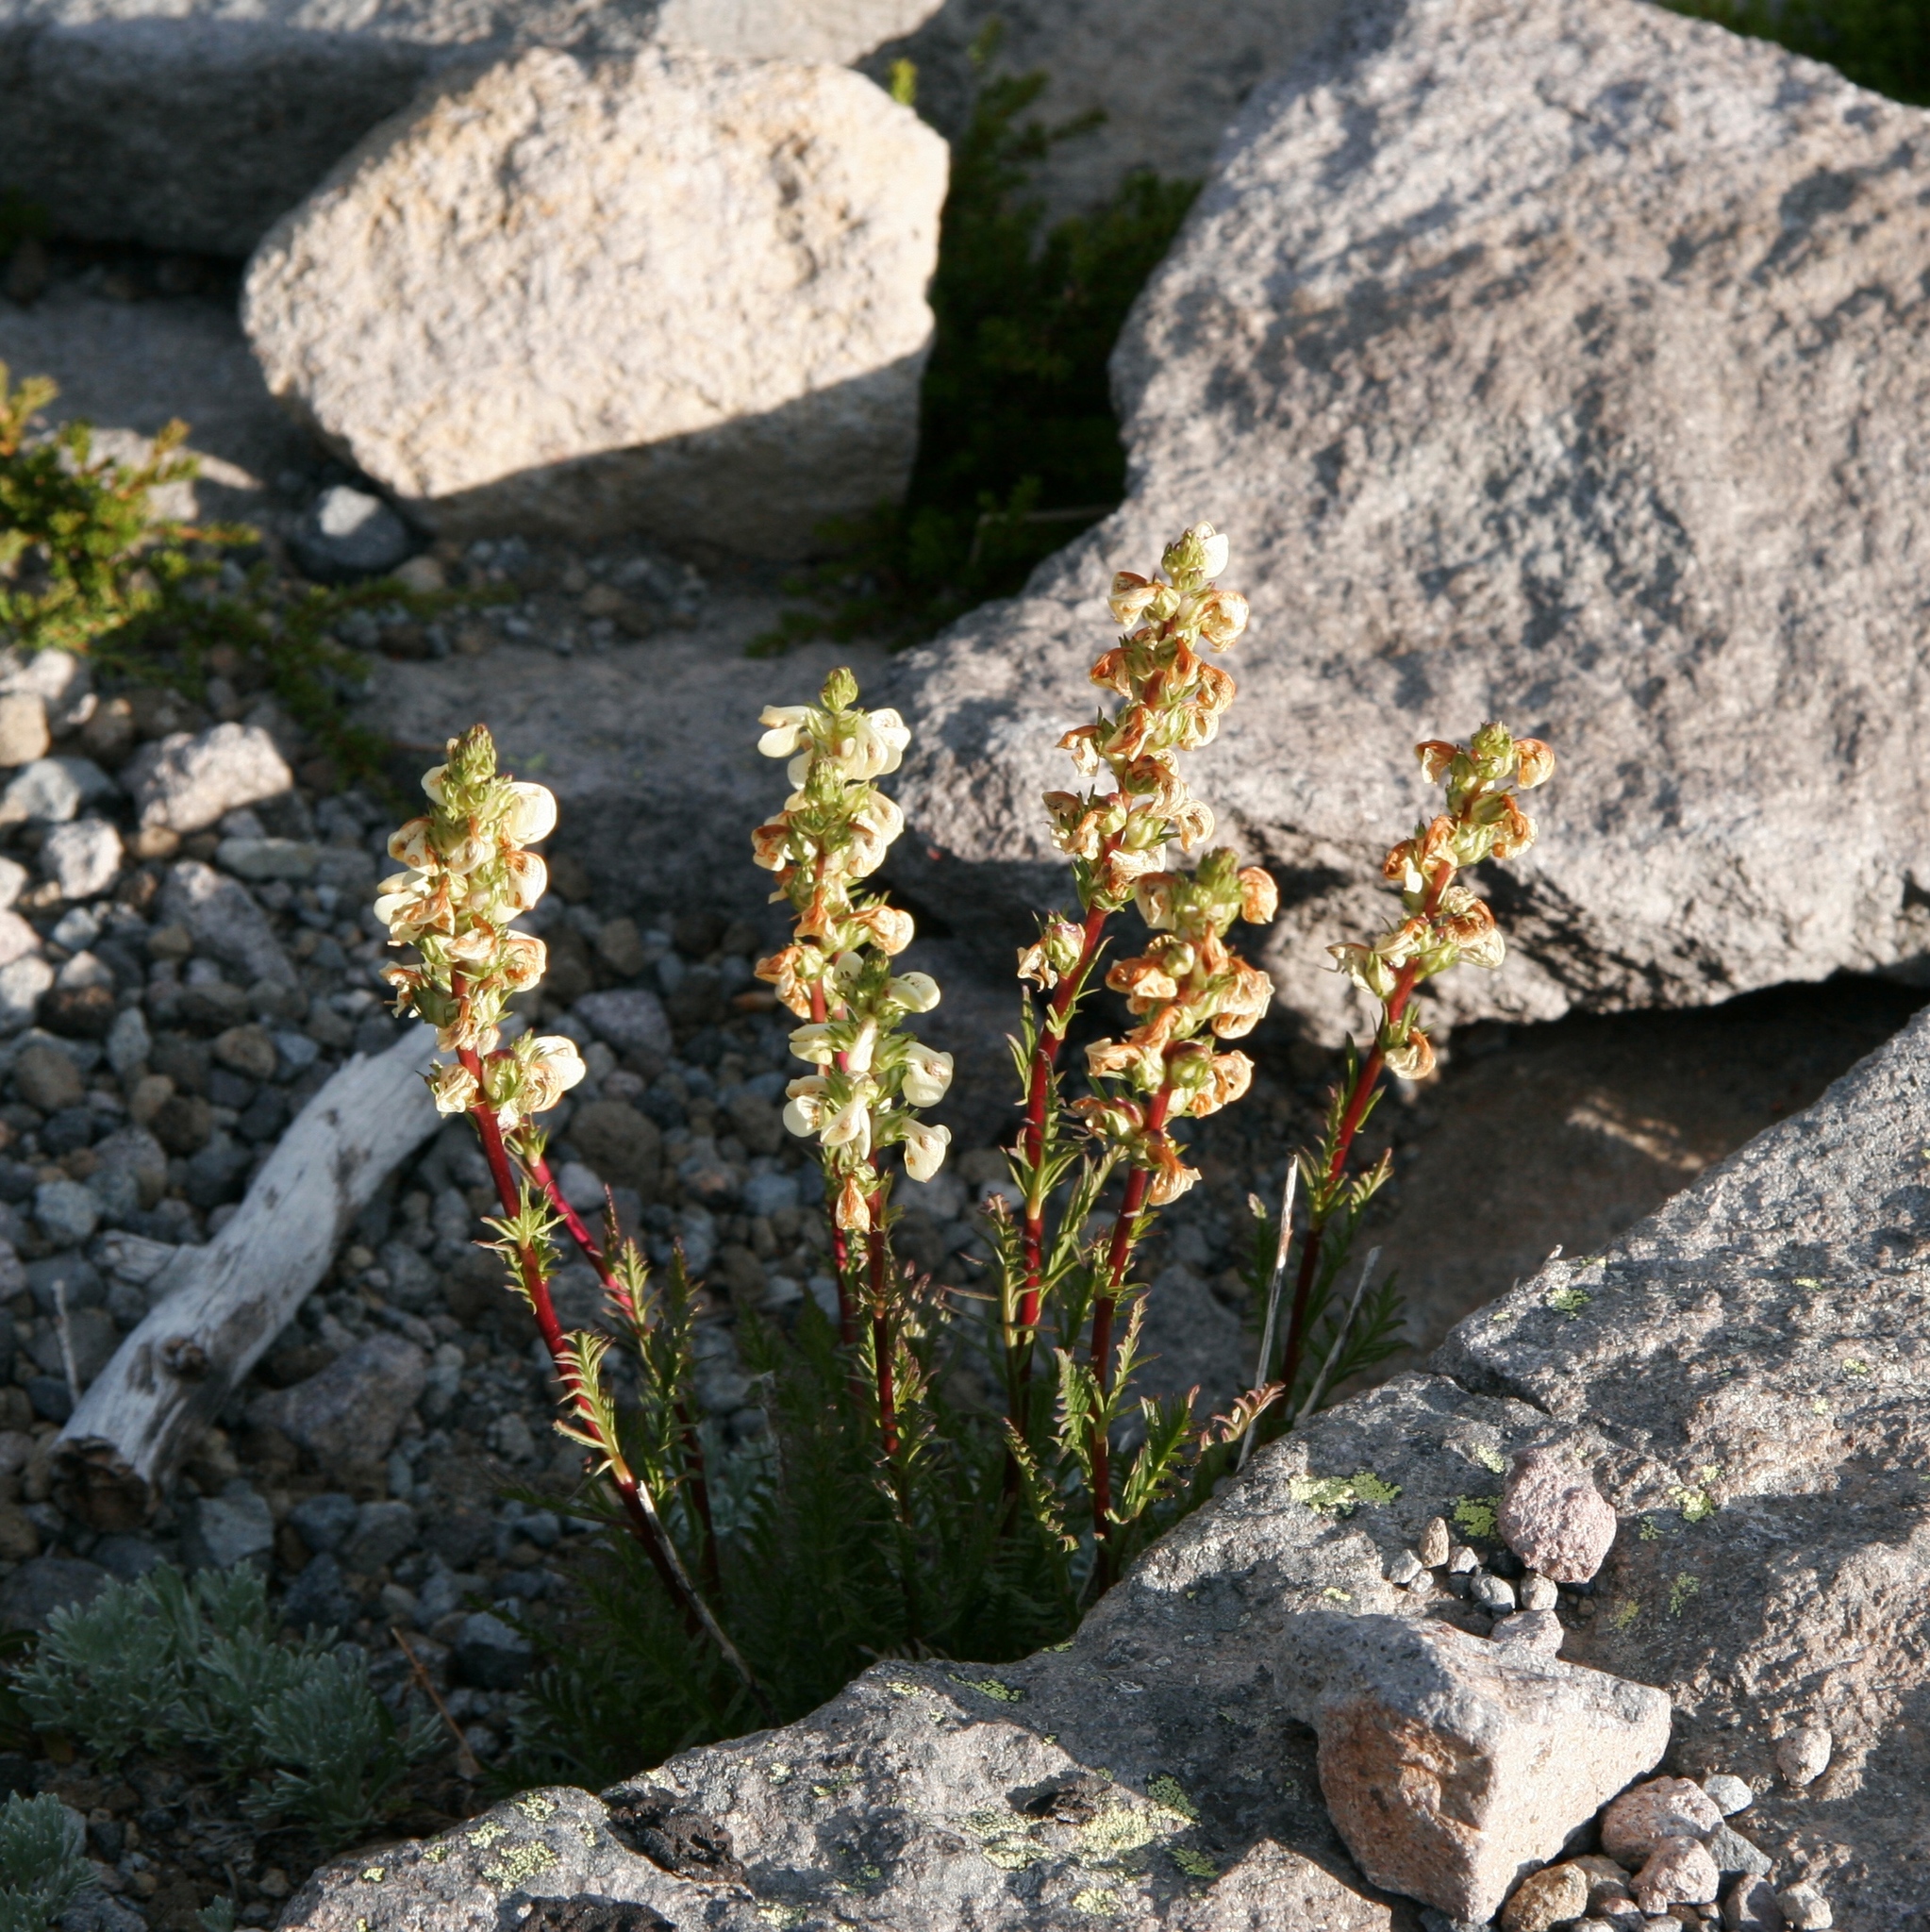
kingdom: Plantae
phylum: Tracheophyta
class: Magnoliopsida
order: Lamiales
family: Orobanchaceae
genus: Pedicularis
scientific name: Pedicularis contorta
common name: Coiled lousewort
